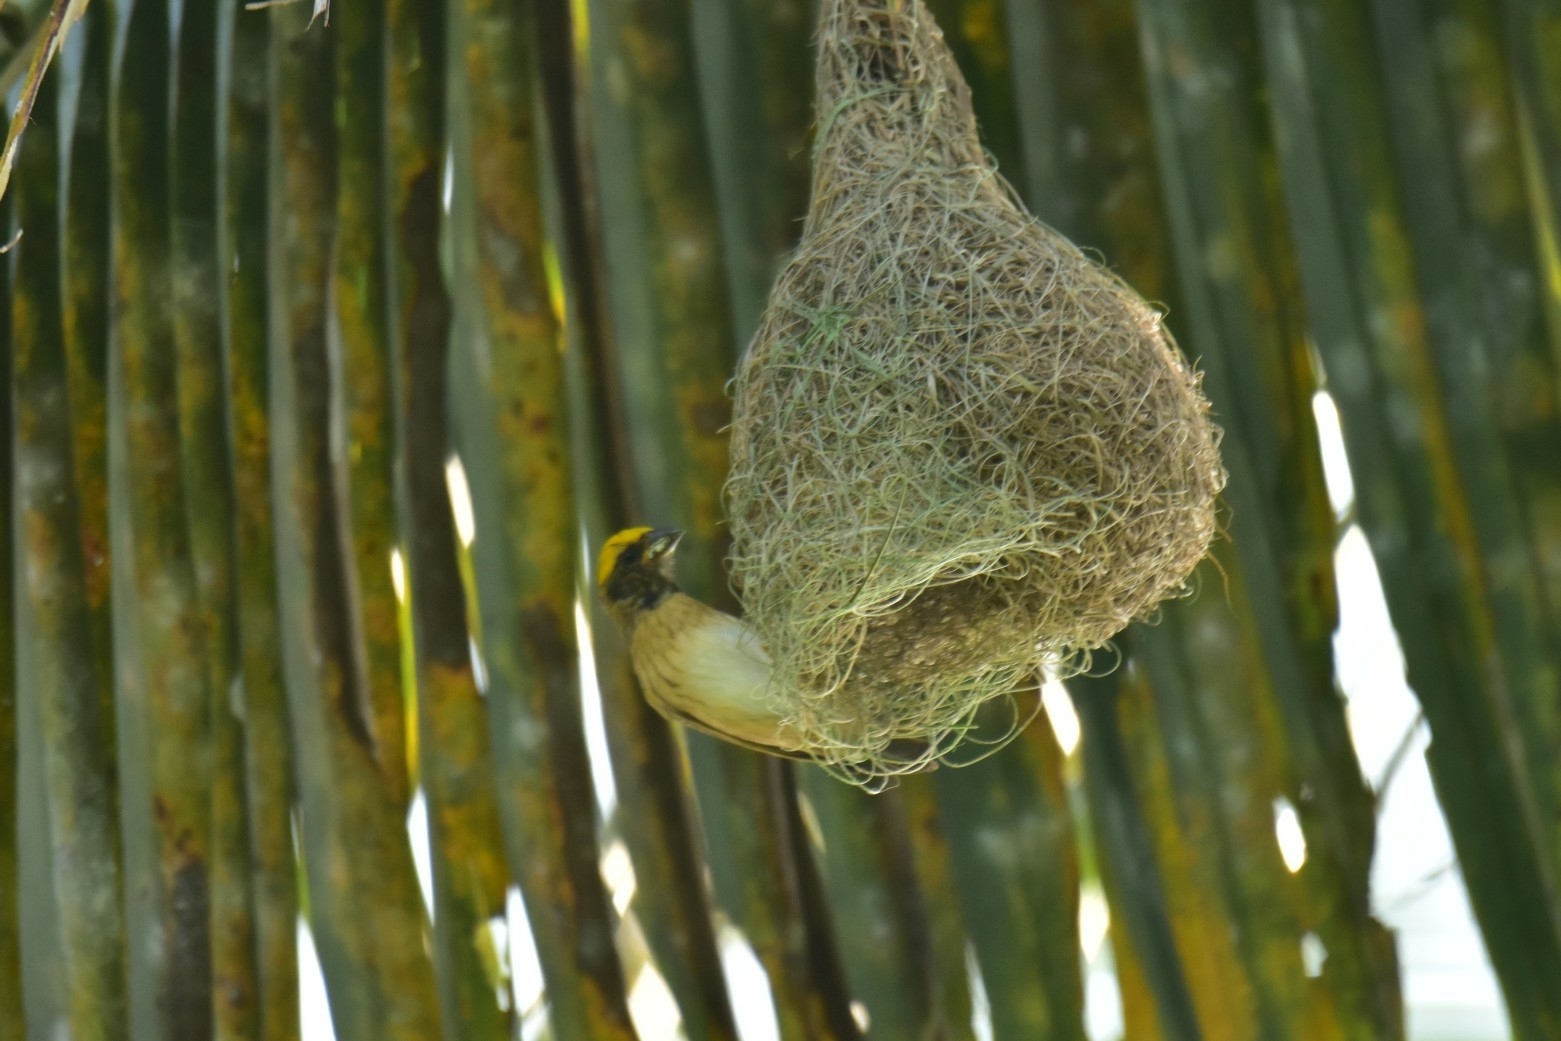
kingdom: Animalia
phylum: Chordata
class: Aves
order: Passeriformes
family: Ploceidae
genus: Ploceus
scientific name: Ploceus philippinus
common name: Baya weaver
